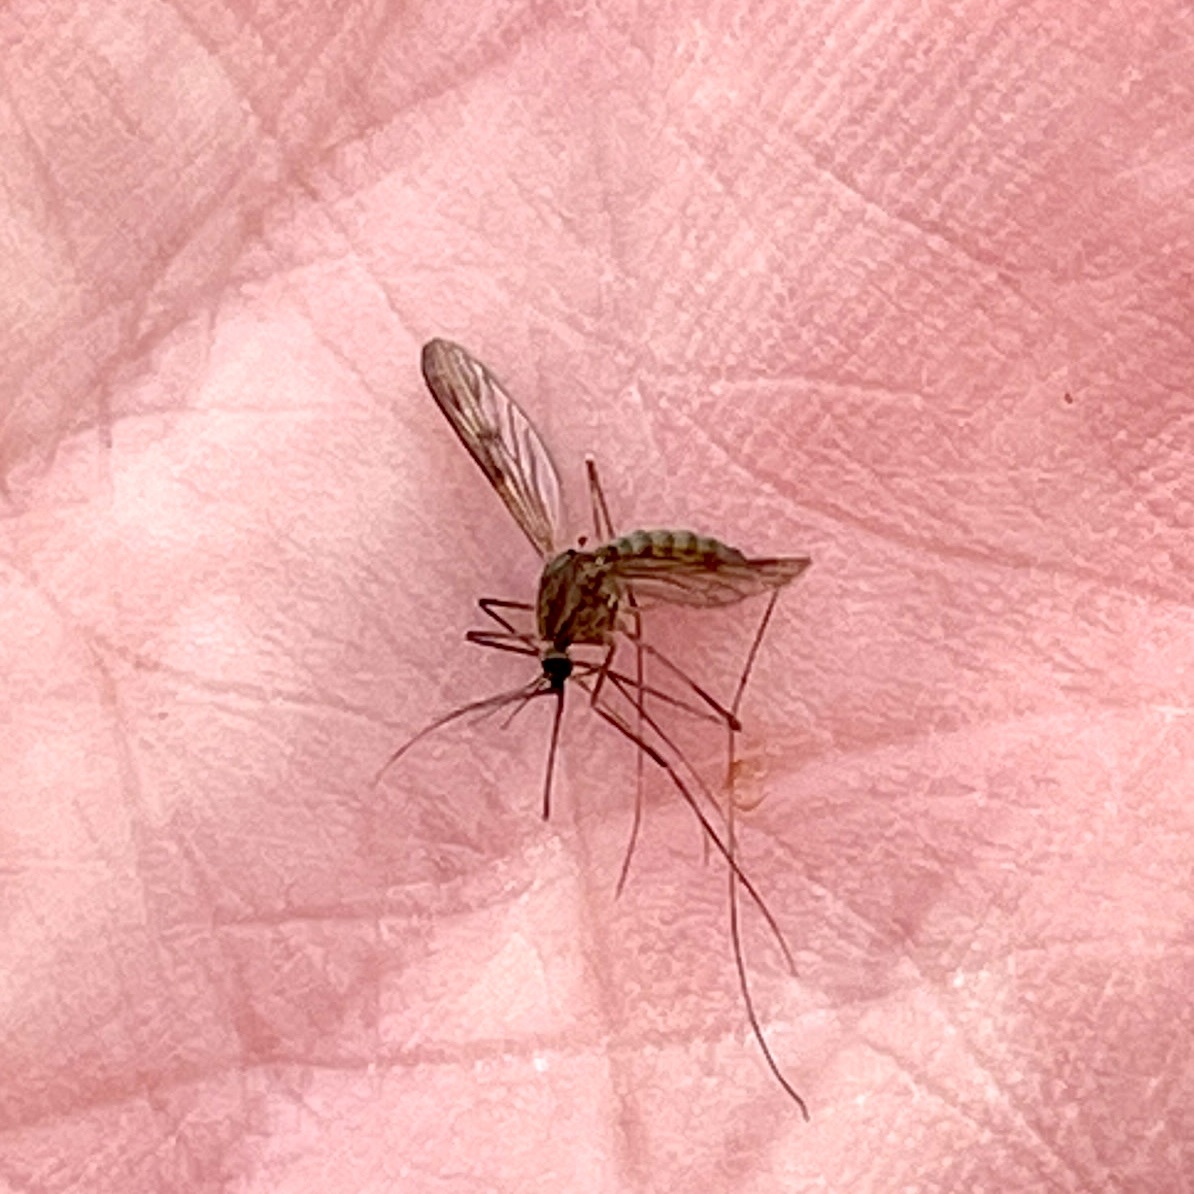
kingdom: Animalia
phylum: Arthropoda
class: Insecta
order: Diptera
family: Culicidae
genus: Anopheles
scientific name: Anopheles quadrimaculatus
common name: Common malaria mosquito
